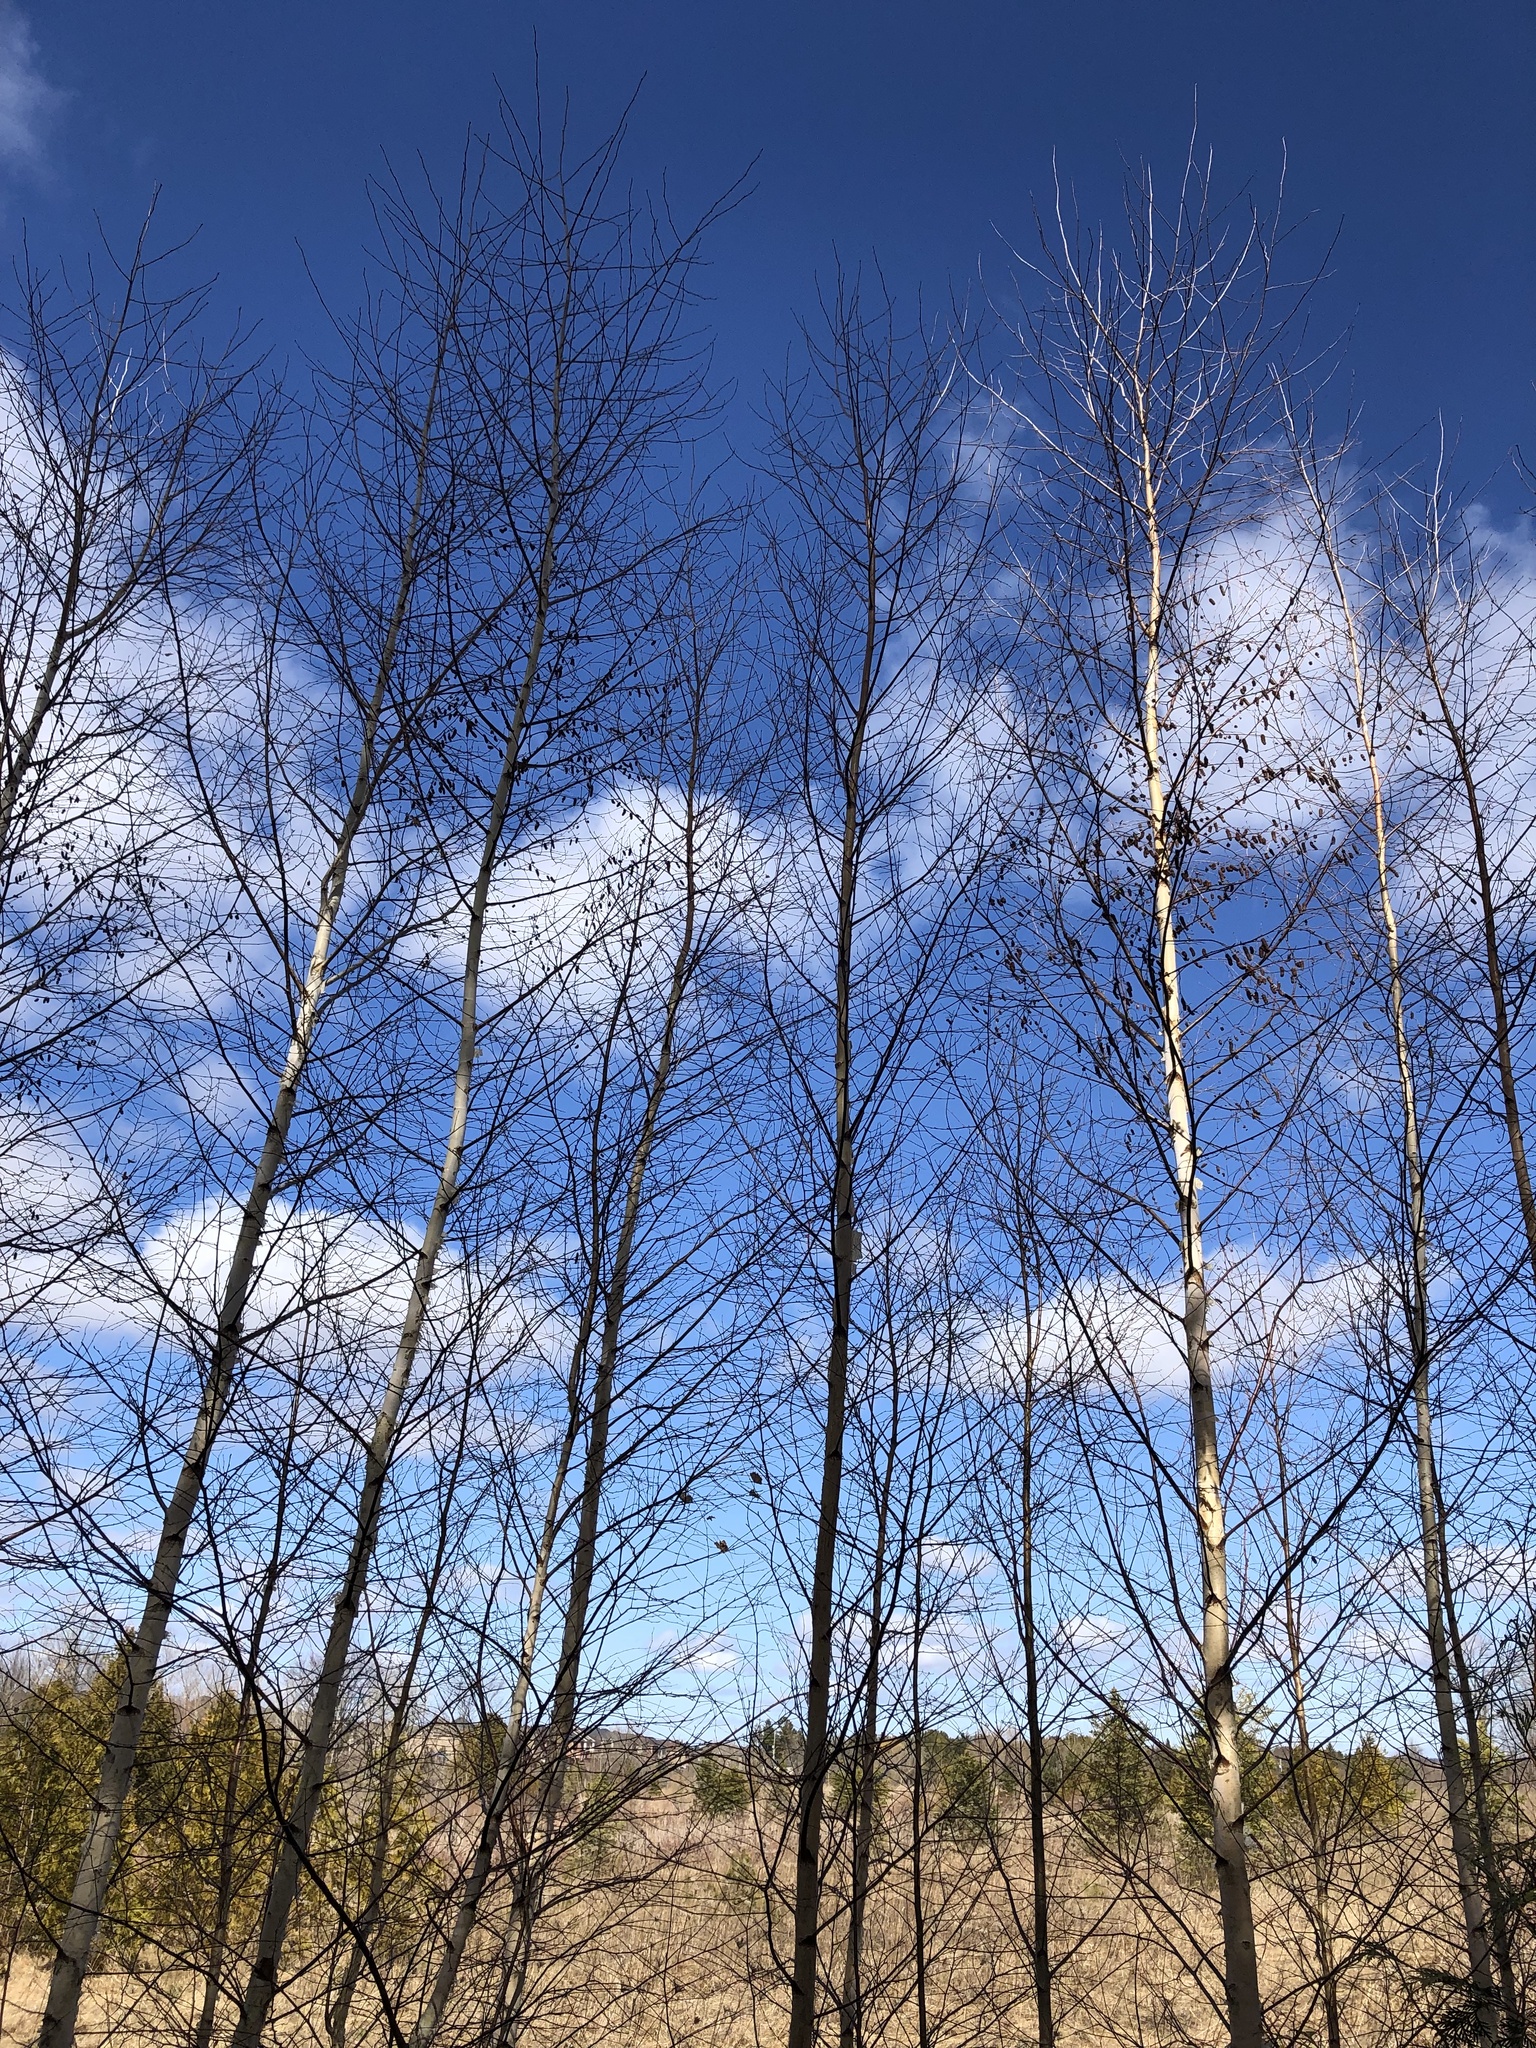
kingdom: Plantae
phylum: Tracheophyta
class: Magnoliopsida
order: Fagales
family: Betulaceae
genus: Betula
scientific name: Betula papyrifera
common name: Paper birch
